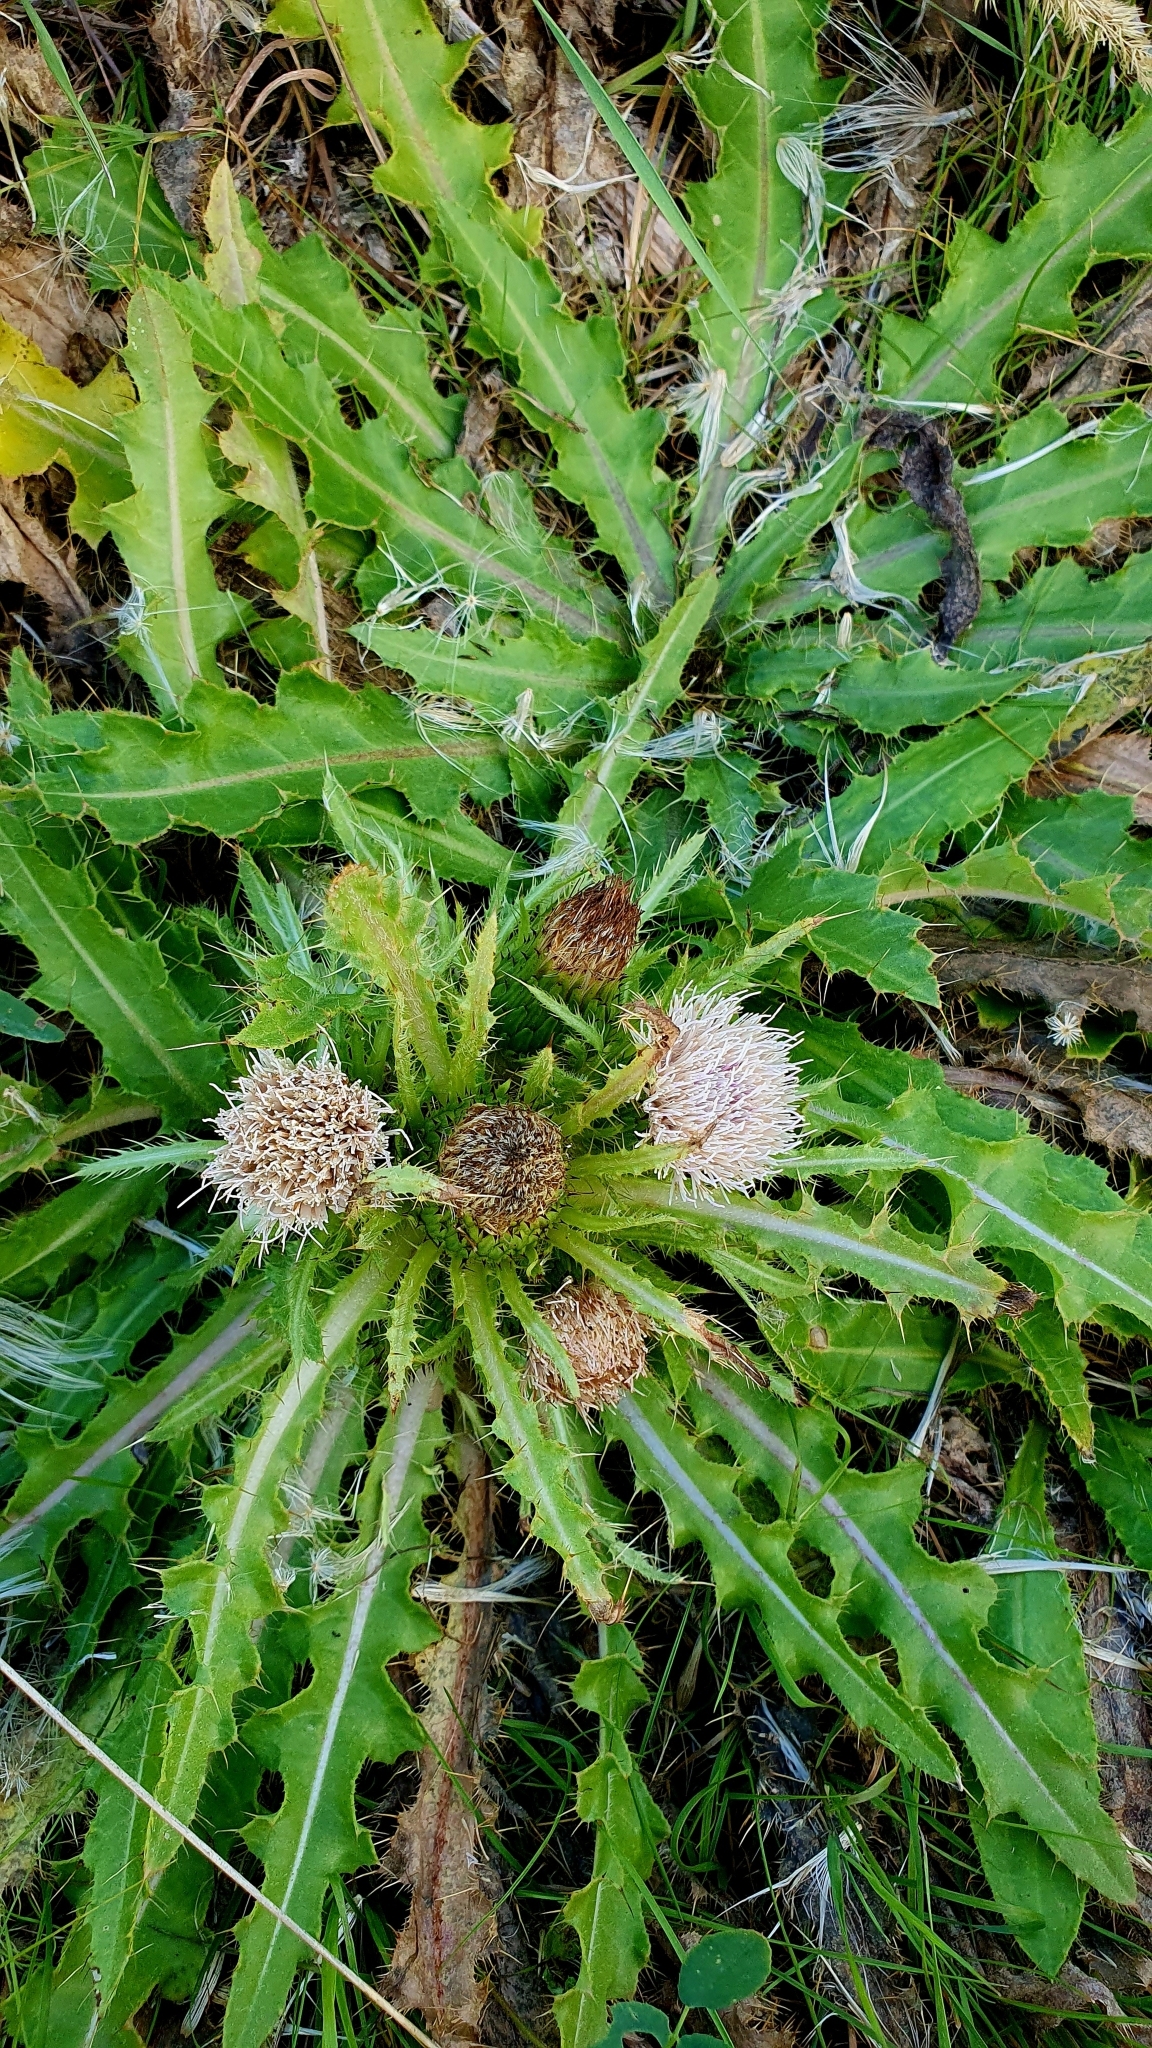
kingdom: Plantae
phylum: Tracheophyta
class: Magnoliopsida
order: Asterales
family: Asteraceae
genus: Cirsium
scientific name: Cirsium esculentum
